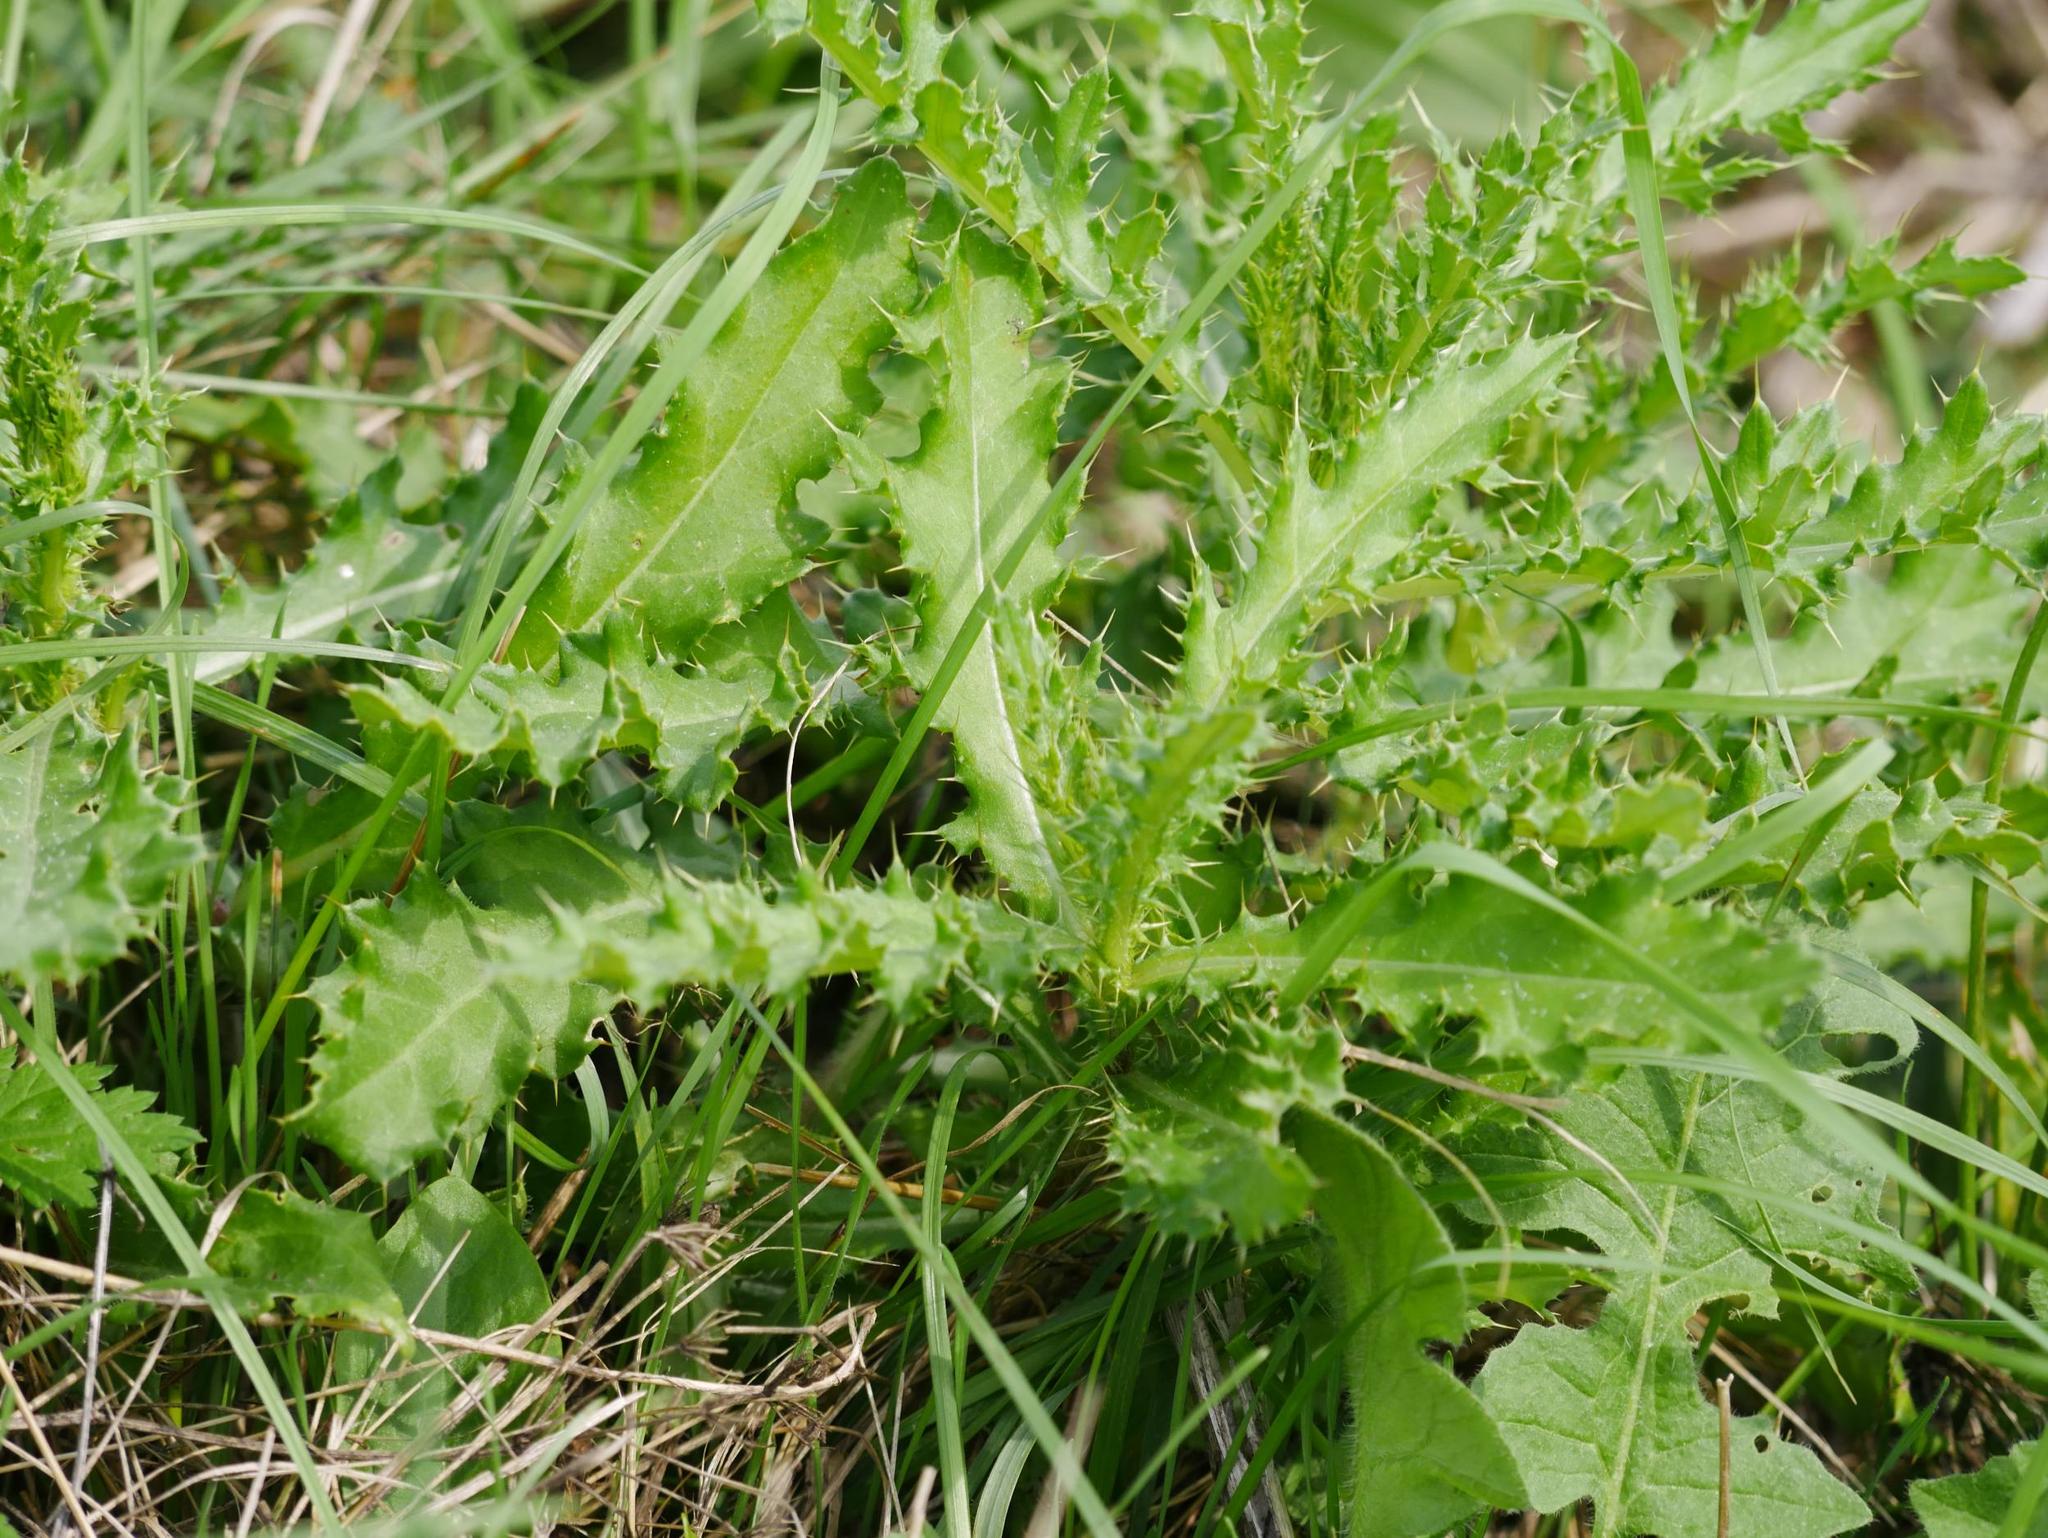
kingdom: Plantae
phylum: Tracheophyta
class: Magnoliopsida
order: Asterales
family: Asteraceae
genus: Cirsium
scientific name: Cirsium arvense
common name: Creeping thistle
